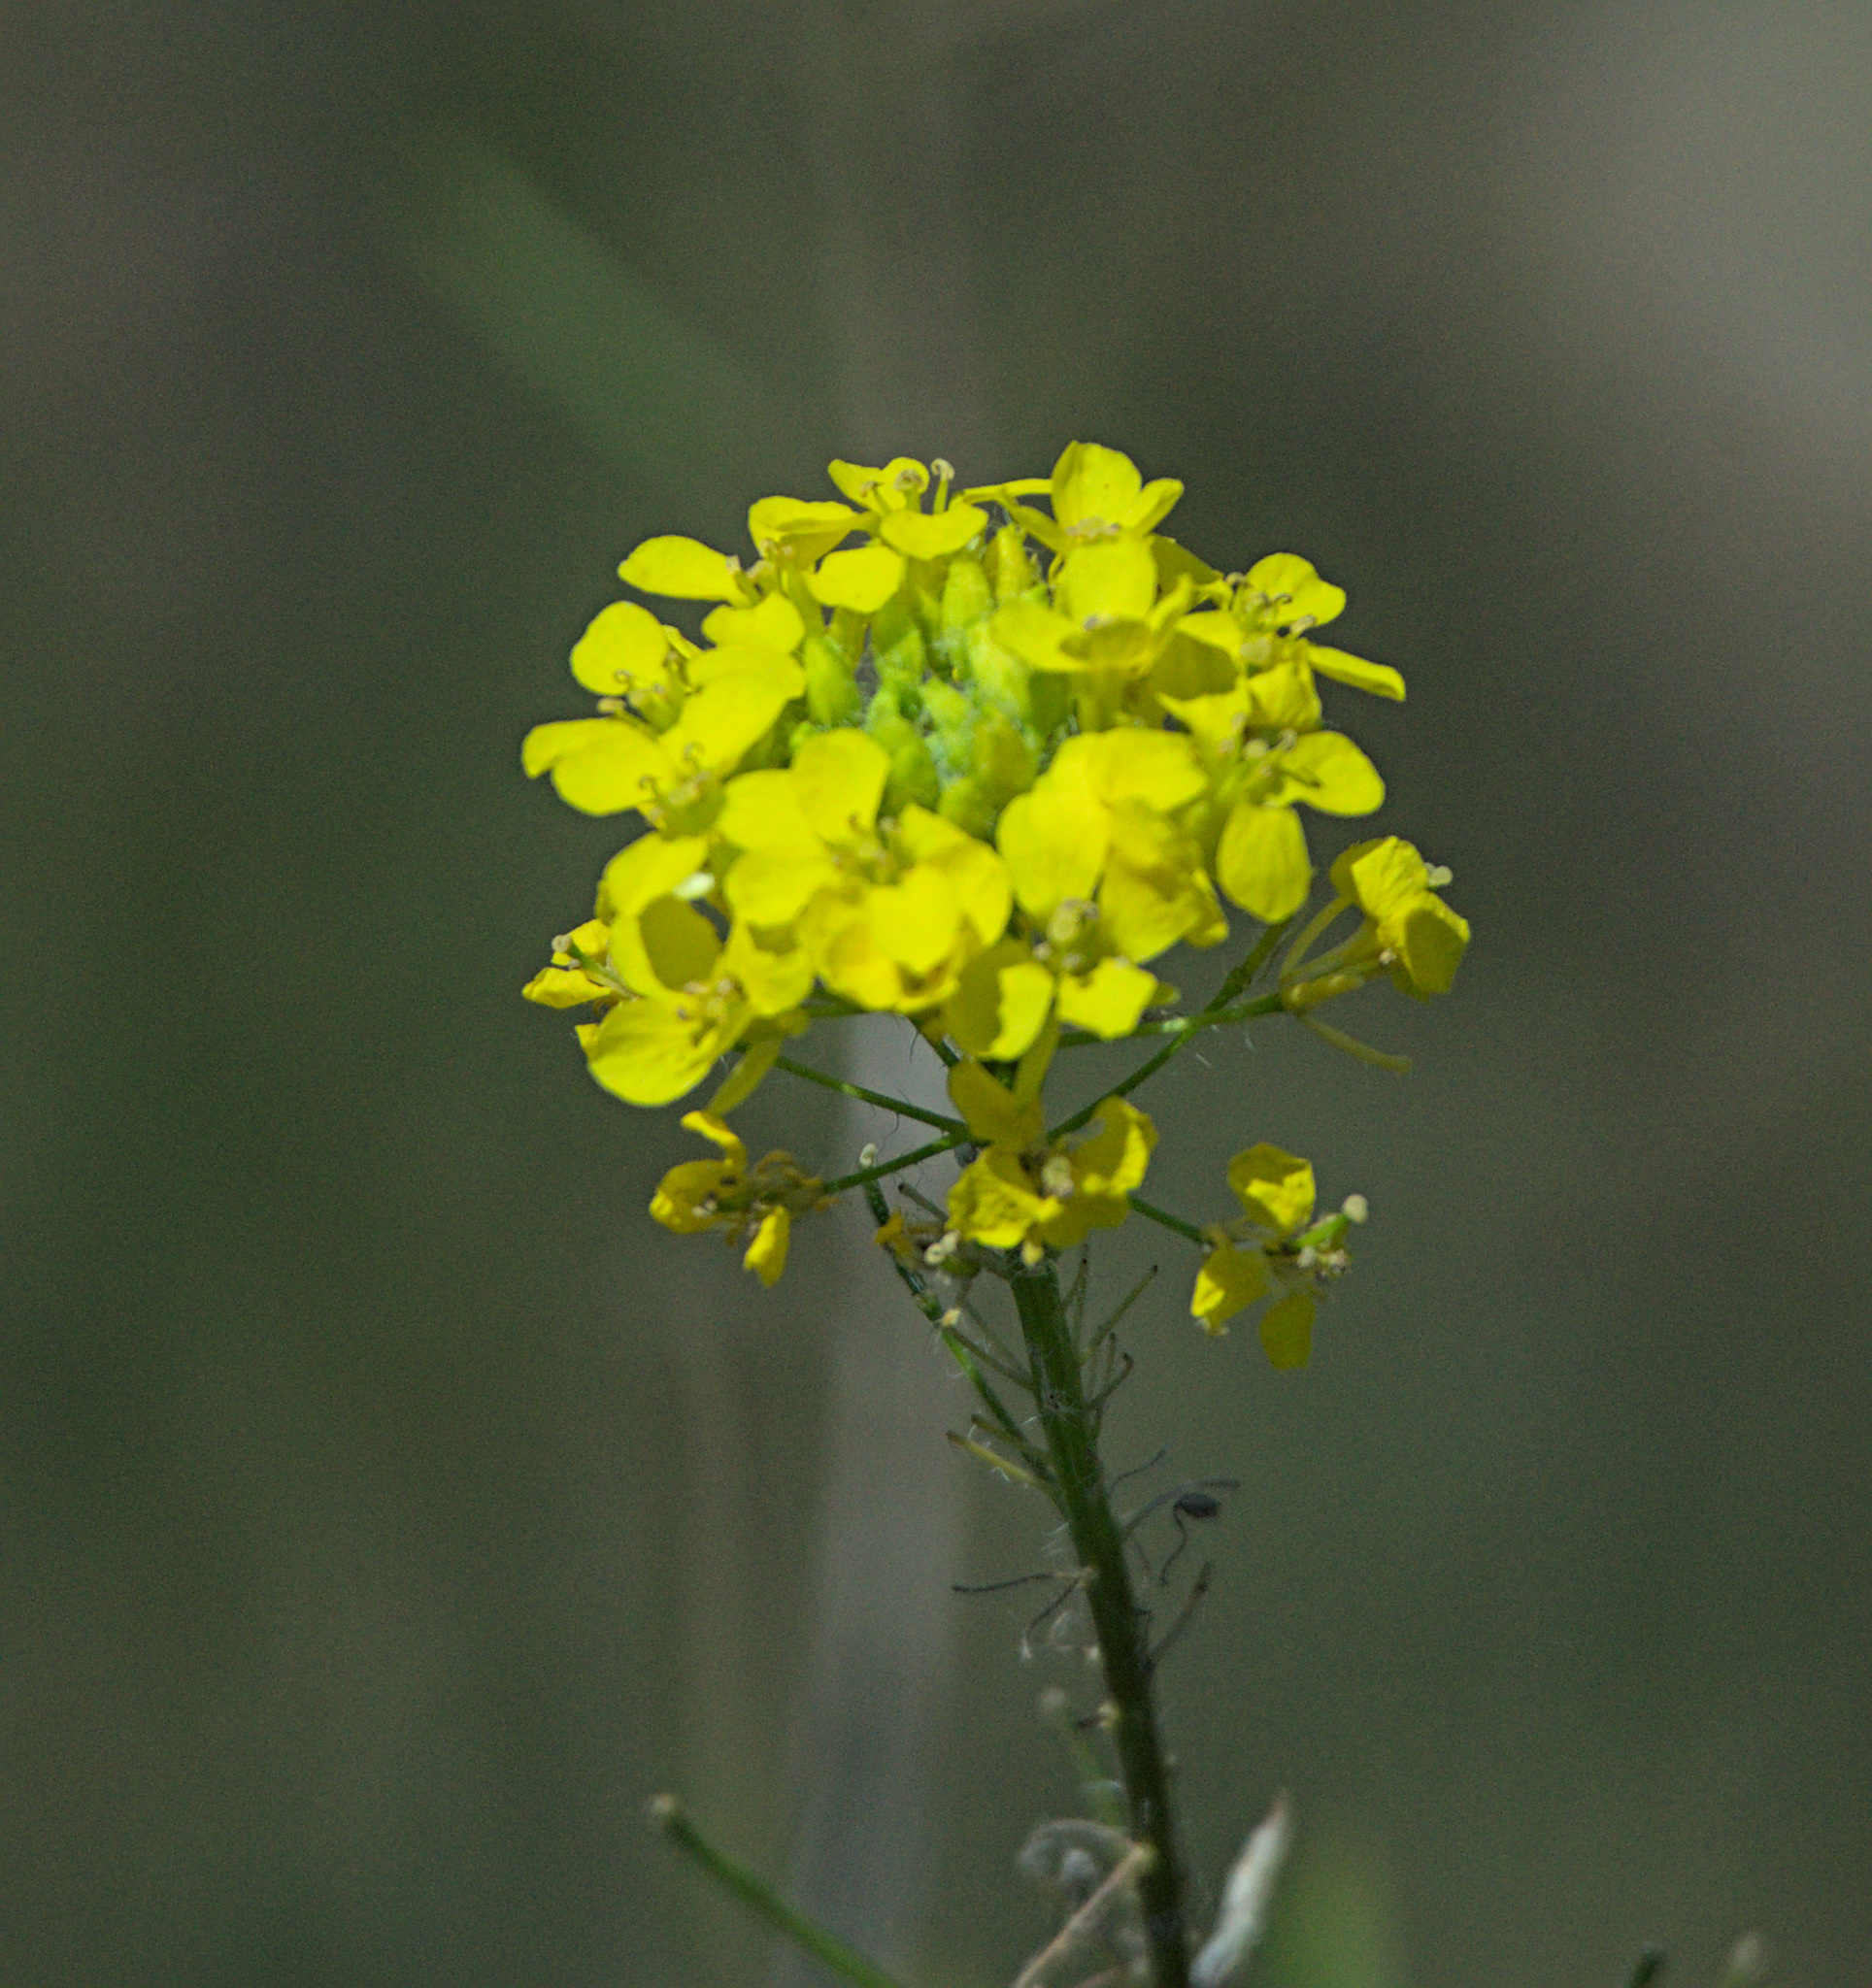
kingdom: Plantae
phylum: Tracheophyta
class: Magnoliopsida
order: Brassicales
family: Brassicaceae
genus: Sisymbrium
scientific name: Sisymbrium loeselii
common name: False london-rocket
